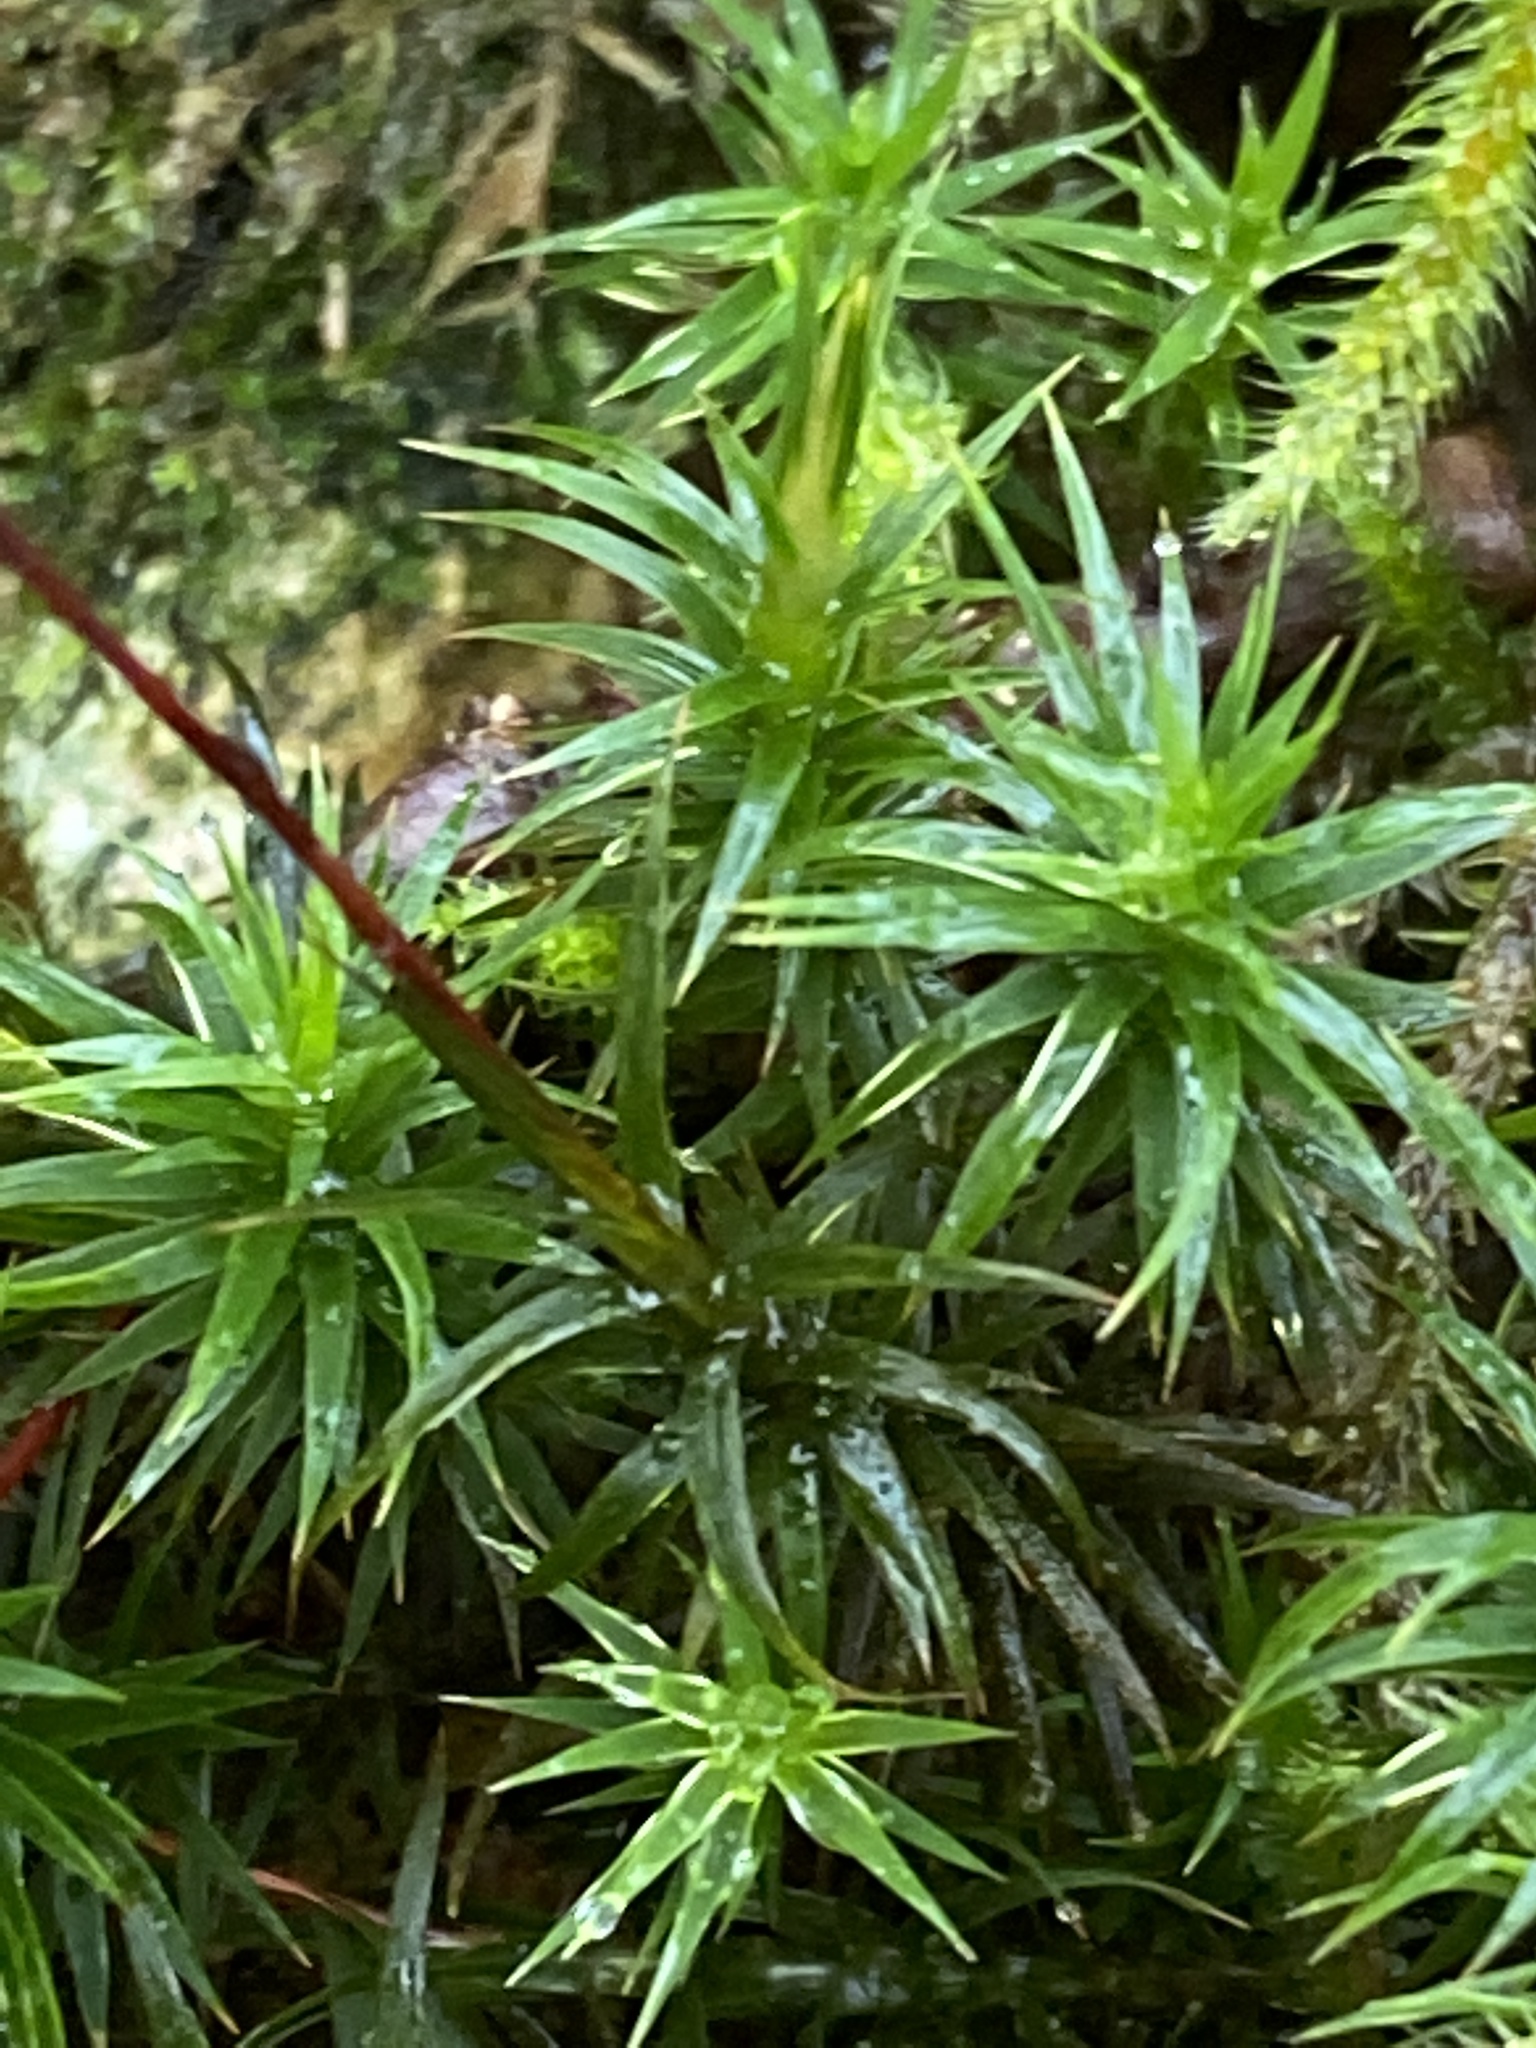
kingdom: Plantae
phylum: Bryophyta
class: Polytrichopsida
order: Polytrichales
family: Polytrichaceae
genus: Polytrichum
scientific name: Polytrichum formosum
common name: Bank haircap moss
